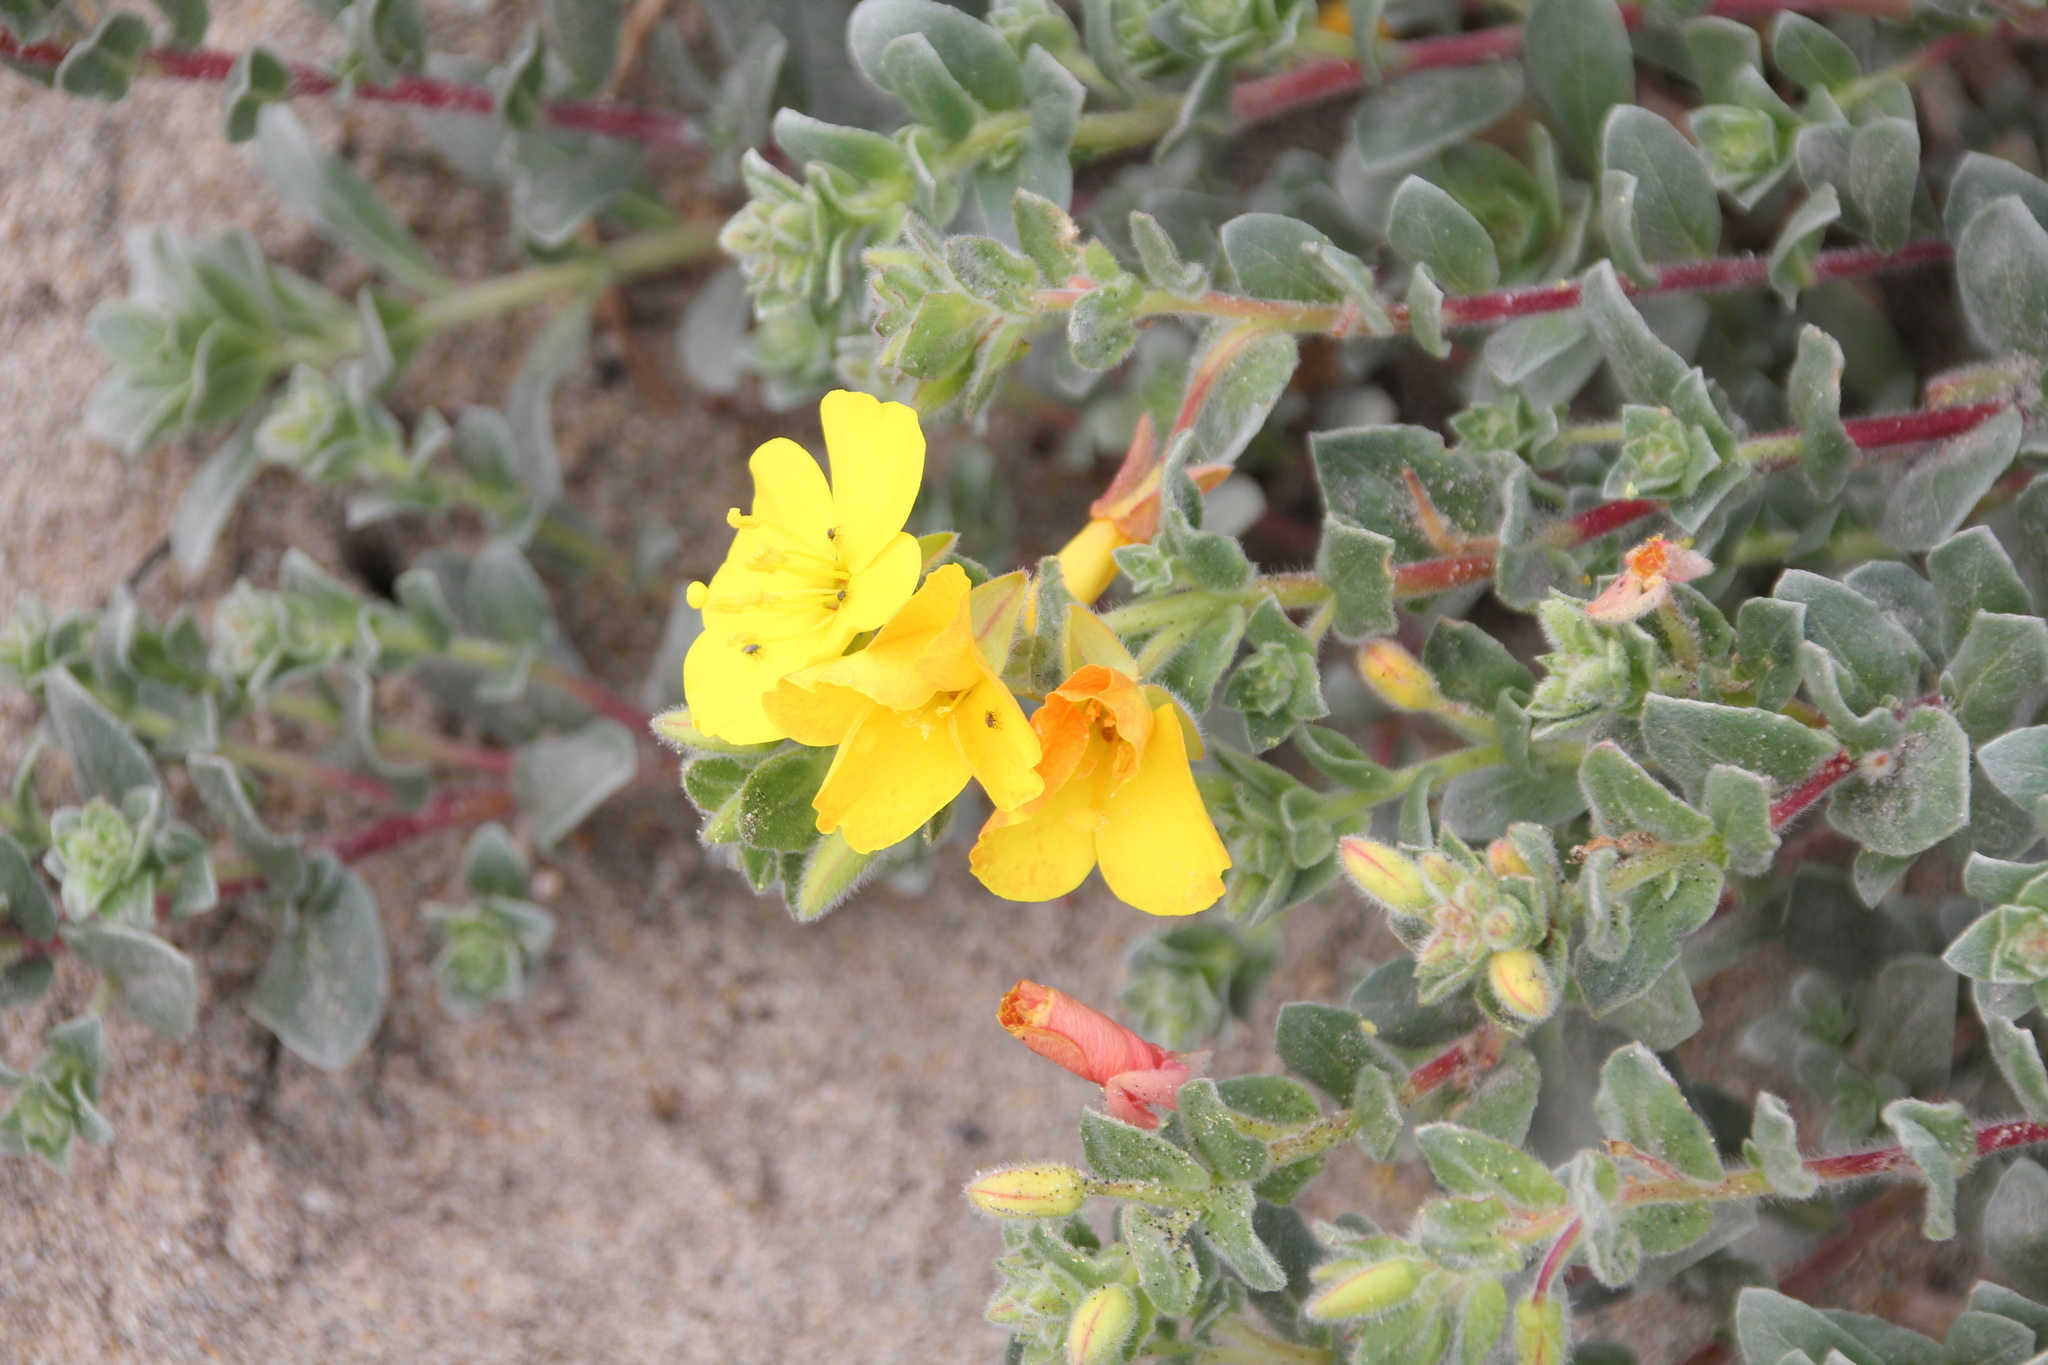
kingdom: Plantae
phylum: Tracheophyta
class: Magnoliopsida
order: Myrtales
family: Onagraceae
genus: Camissoniopsis
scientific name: Camissoniopsis cheiranthifolia
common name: Beach suncup
